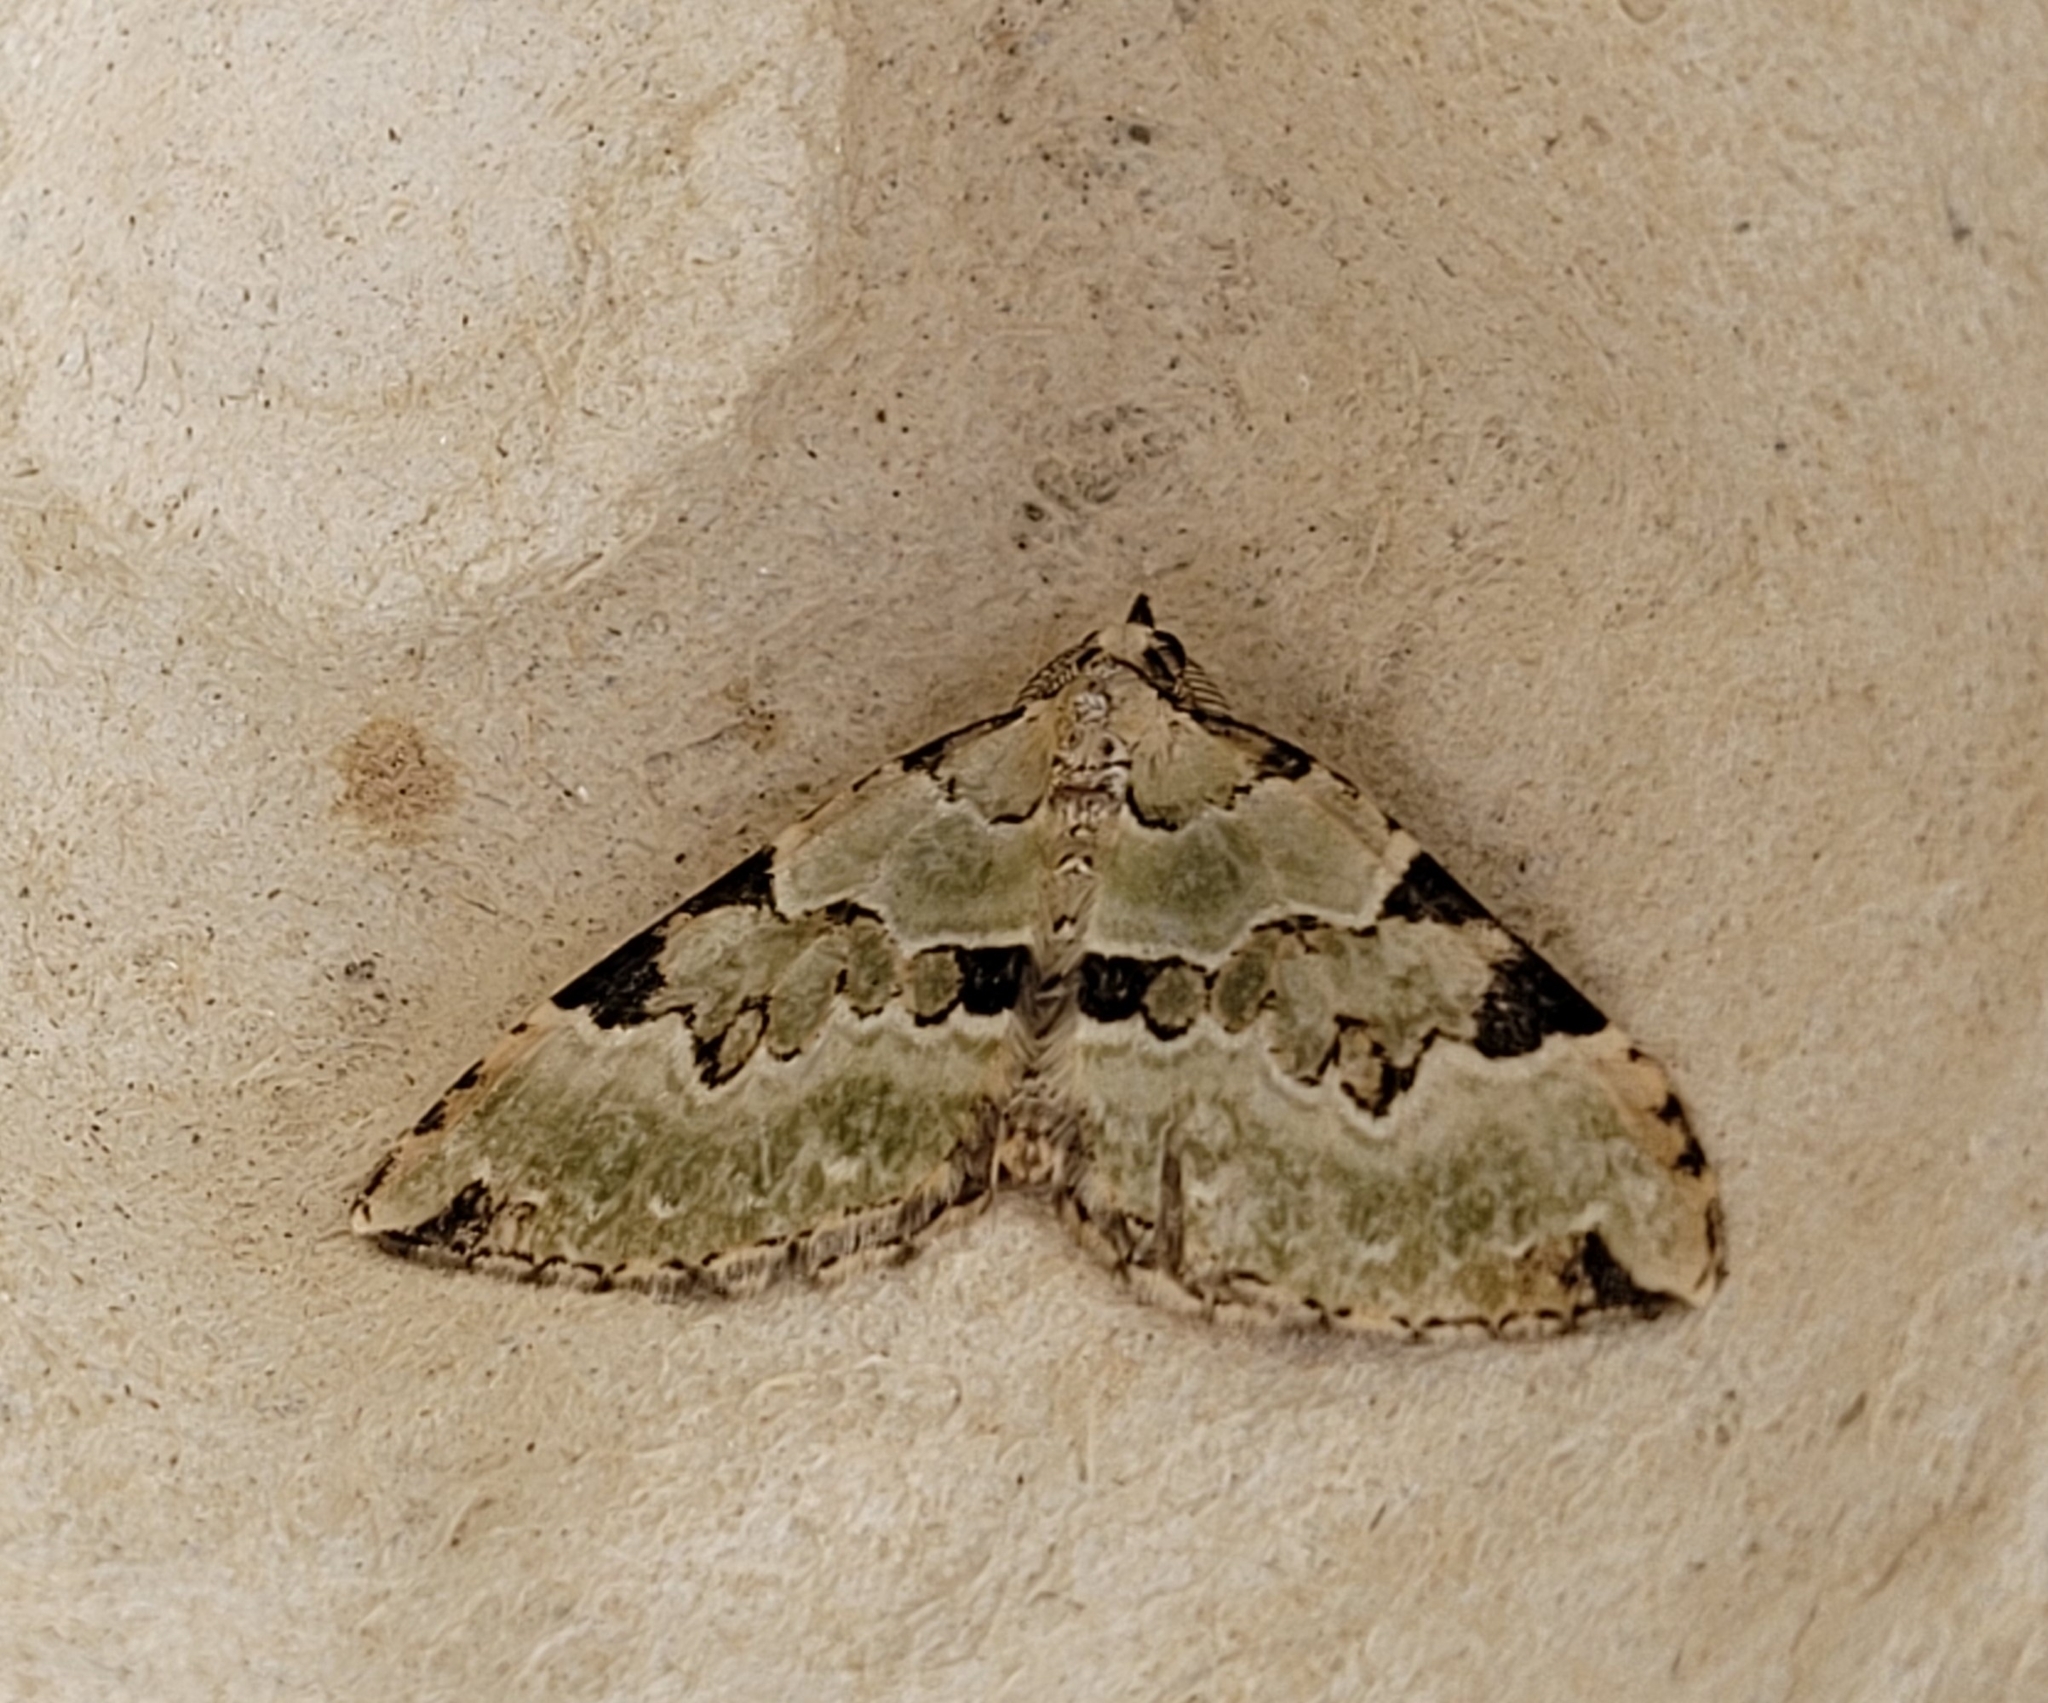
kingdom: Animalia
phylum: Arthropoda
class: Insecta
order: Lepidoptera
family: Geometridae
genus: Colostygia
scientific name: Colostygia pectinataria
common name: Green carpet
